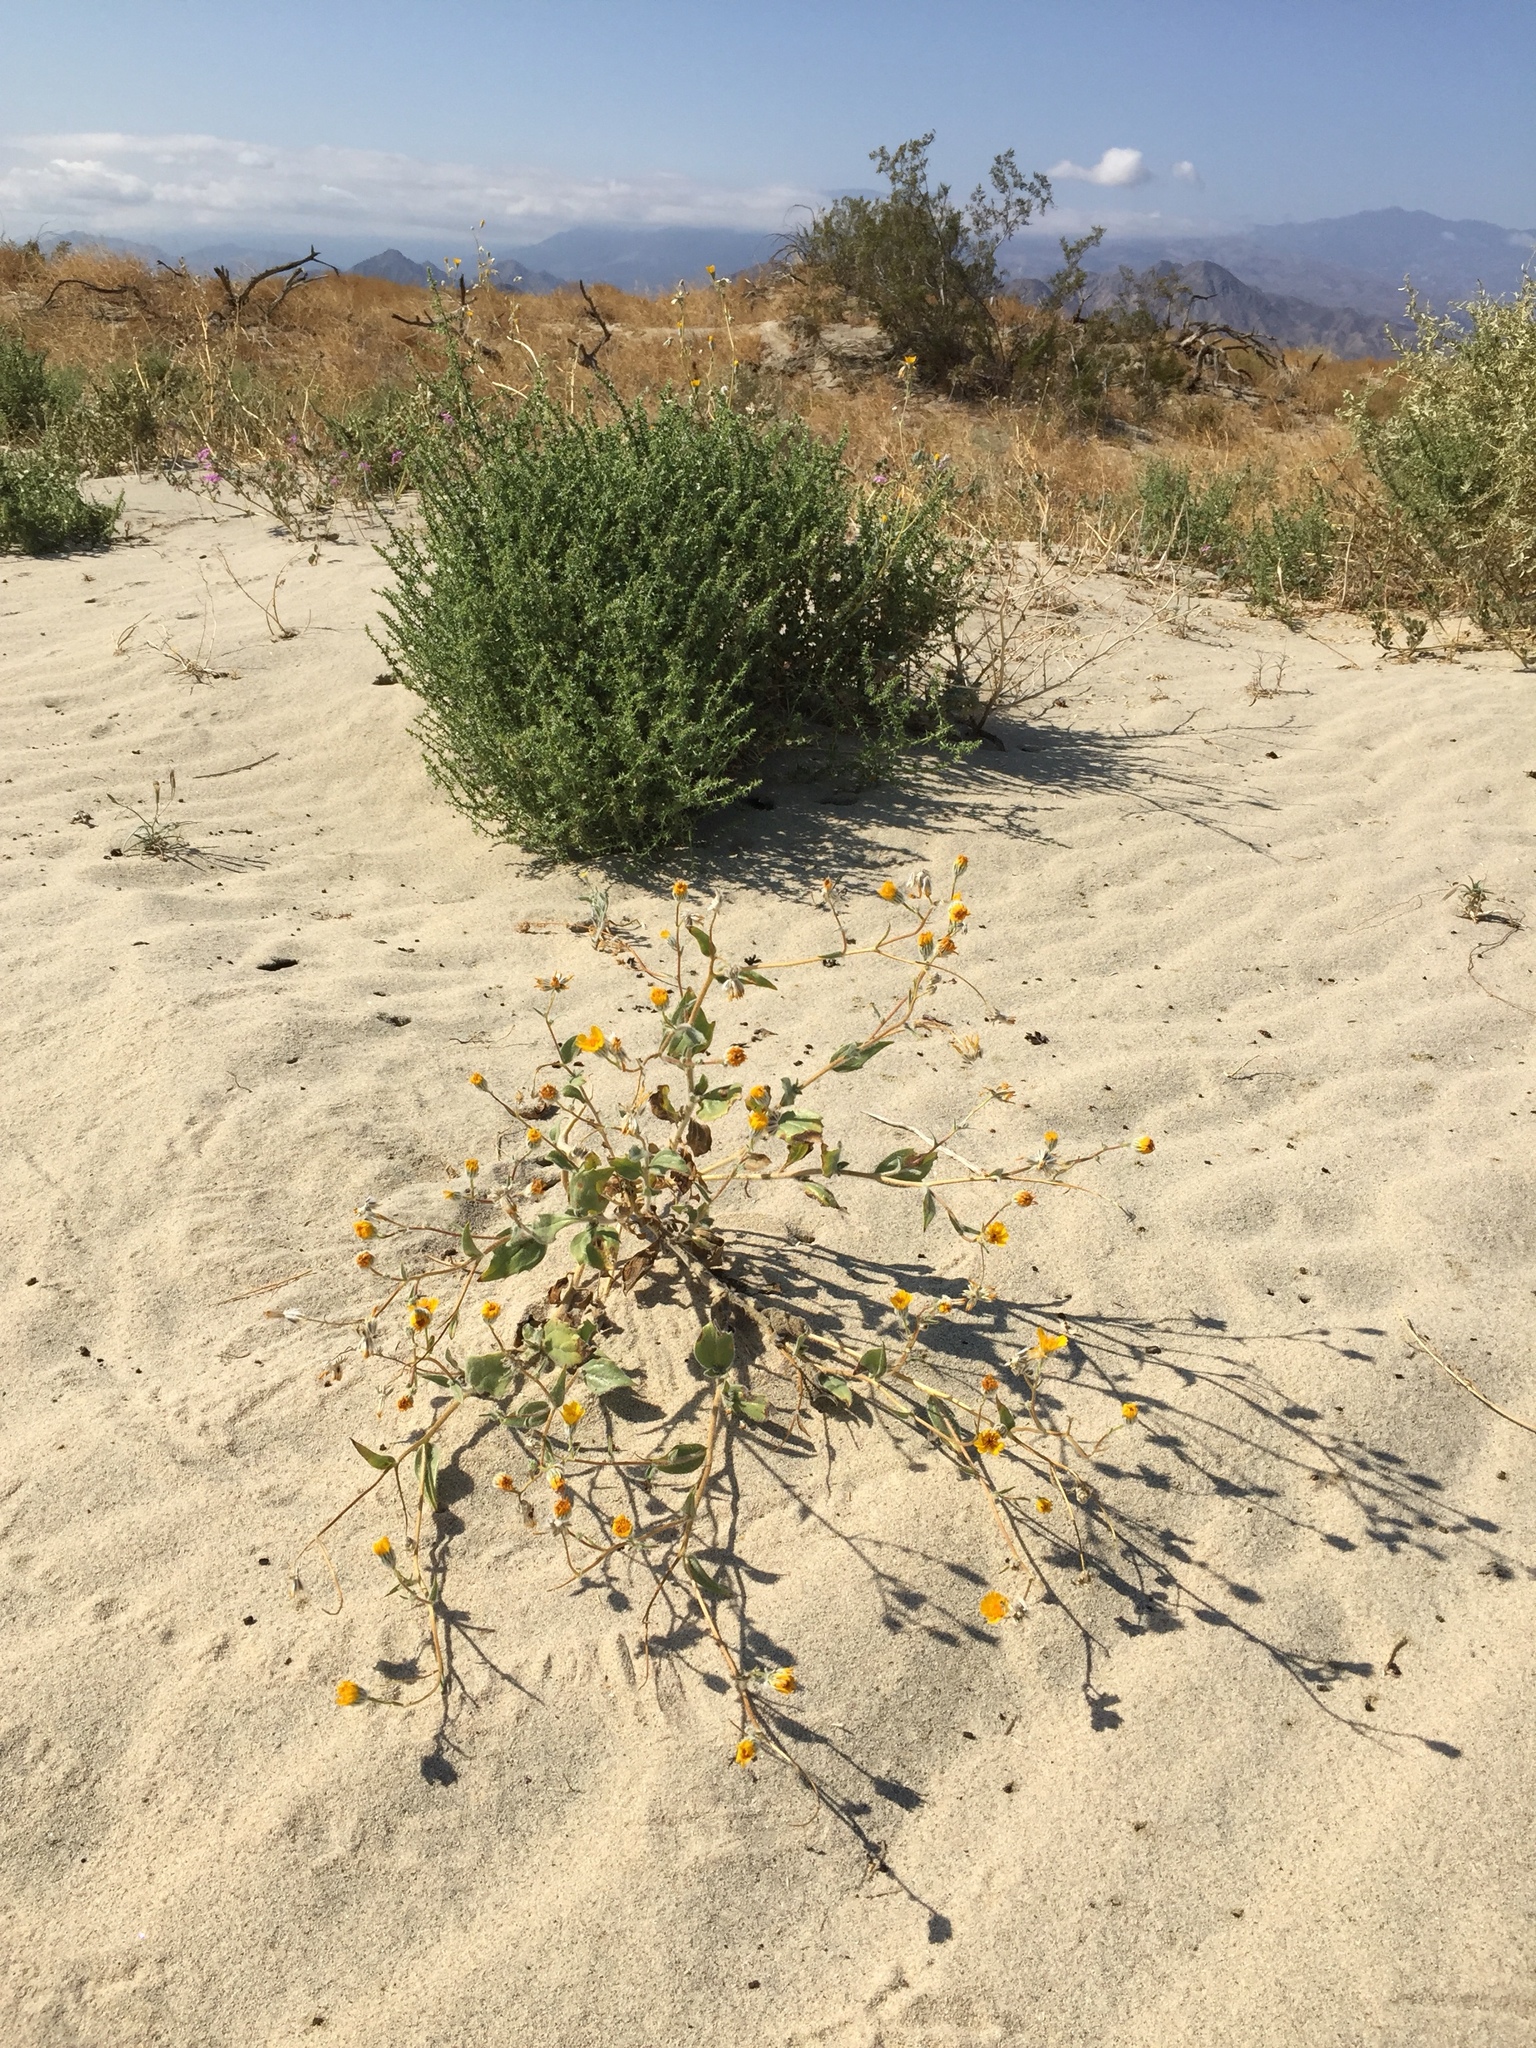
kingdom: Plantae
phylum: Tracheophyta
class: Magnoliopsida
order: Asterales
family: Asteraceae
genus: Geraea
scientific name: Geraea canescens
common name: Desert-gold
